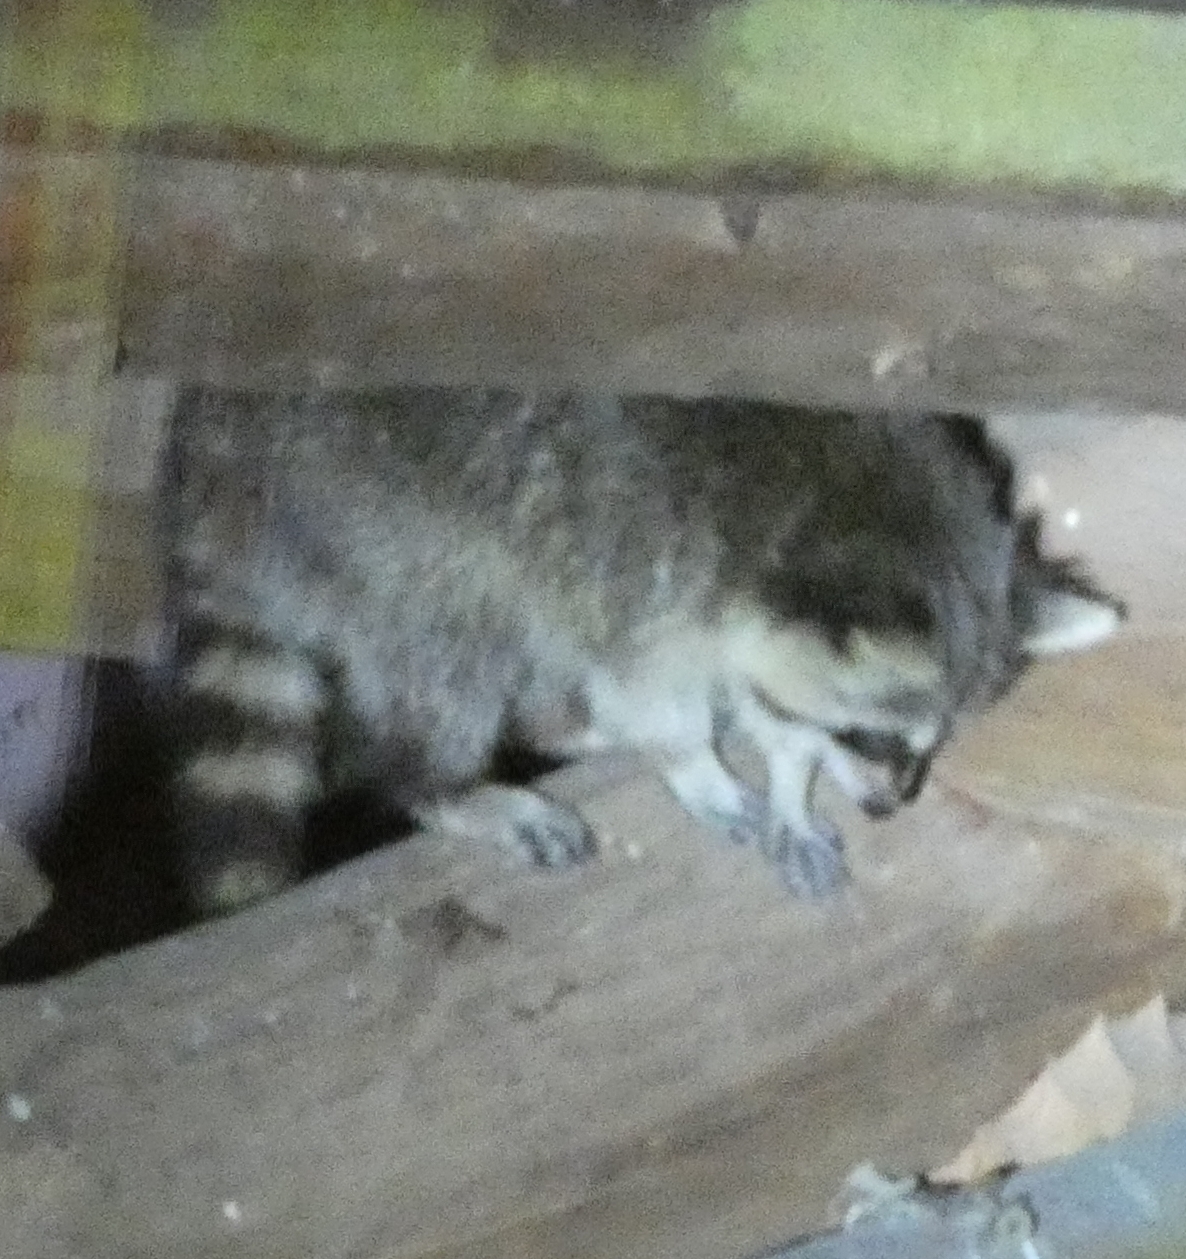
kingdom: Animalia
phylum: Chordata
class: Mammalia
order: Carnivora
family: Procyonidae
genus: Procyon
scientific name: Procyon lotor
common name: Raccoon
